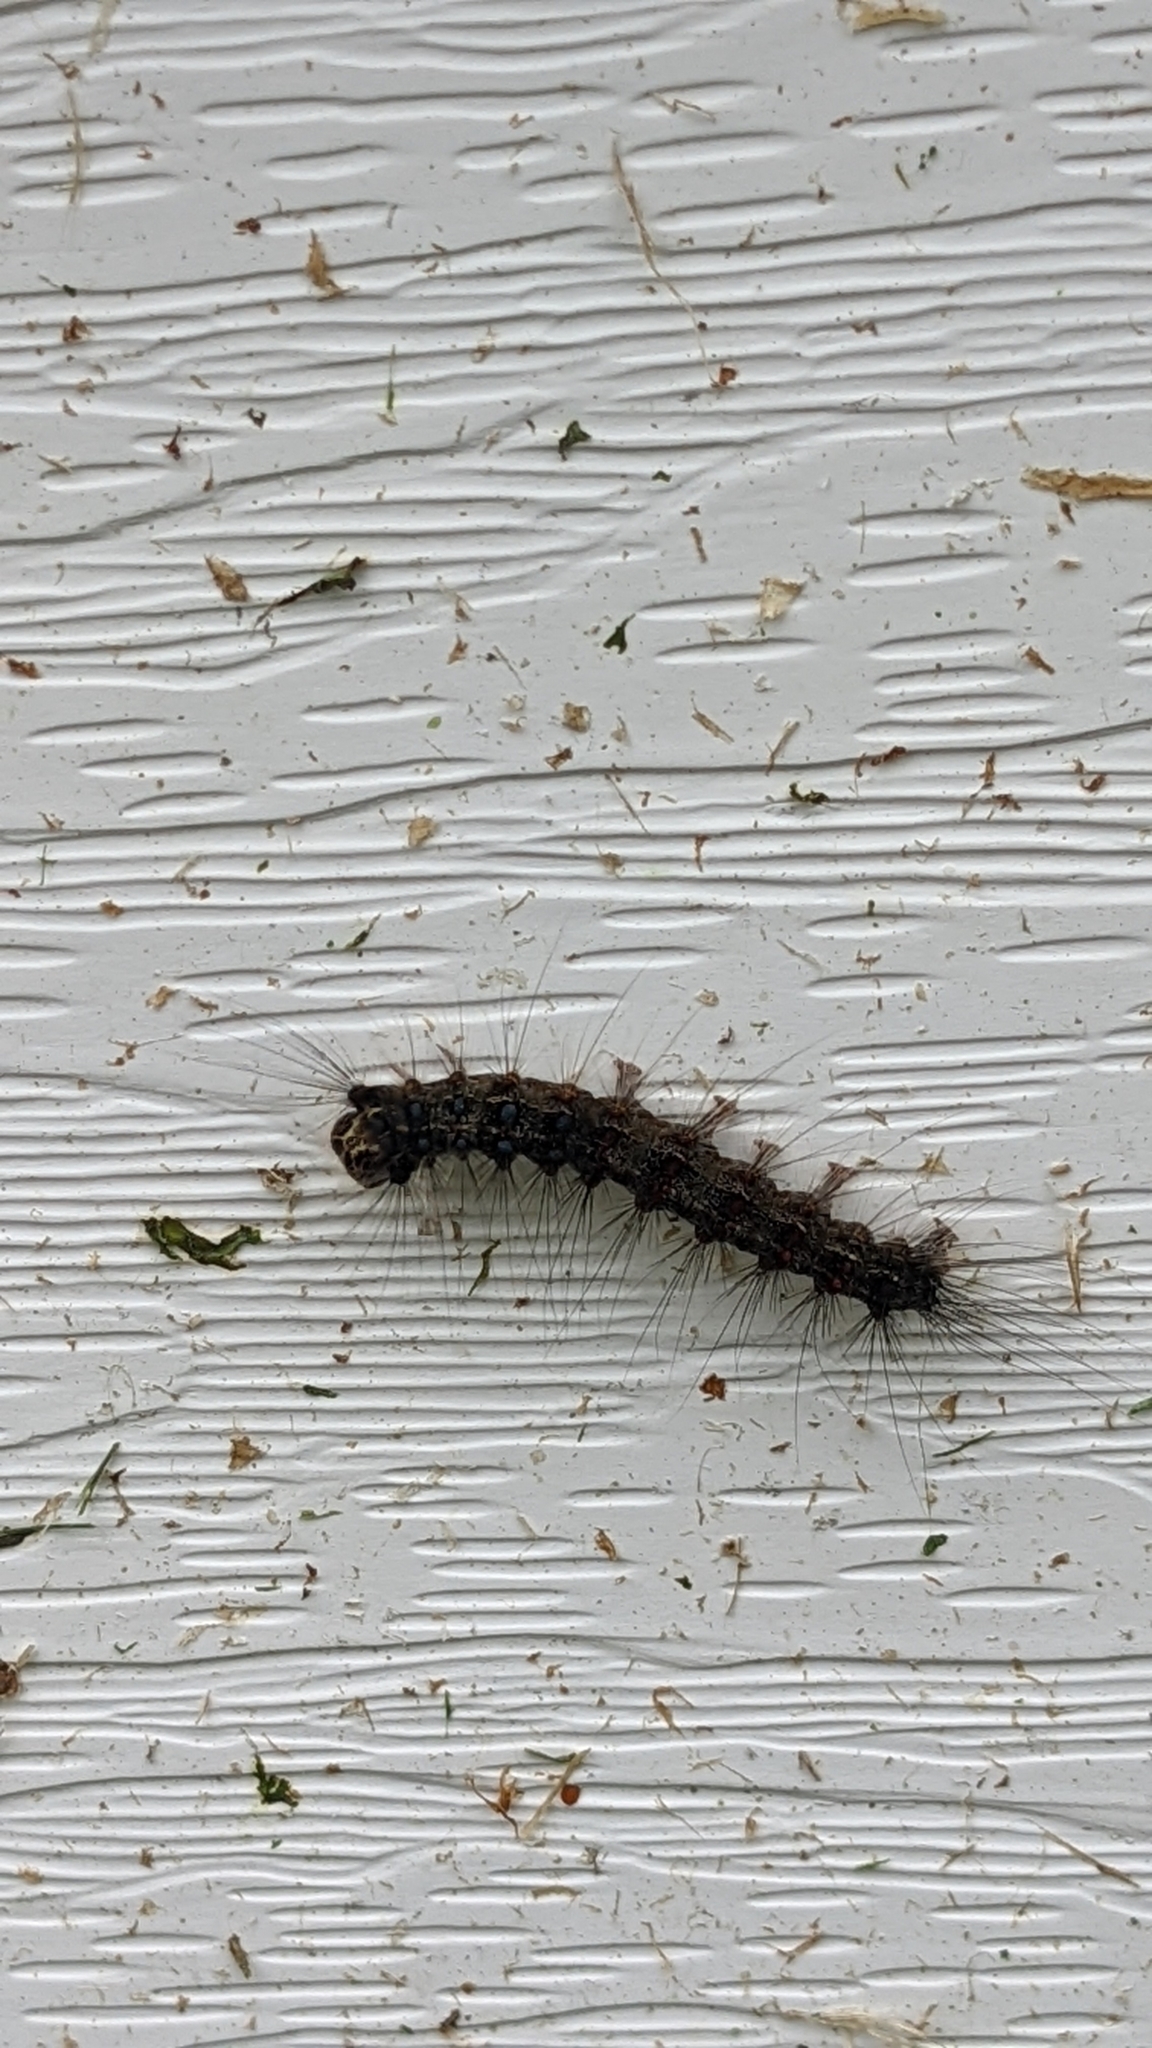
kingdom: Animalia
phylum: Arthropoda
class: Insecta
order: Lepidoptera
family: Erebidae
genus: Lymantria
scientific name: Lymantria dispar
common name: Gypsy moth
